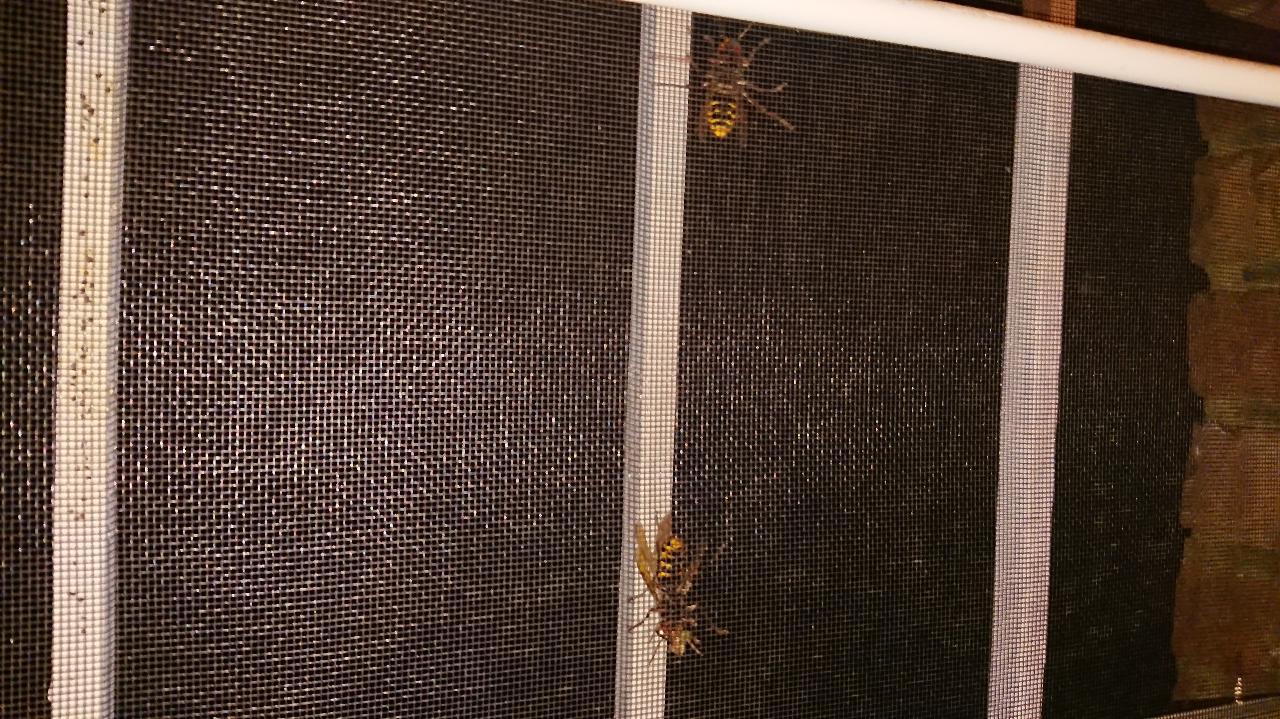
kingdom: Animalia
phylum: Arthropoda
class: Insecta
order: Hymenoptera
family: Vespidae
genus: Vespa
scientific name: Vespa crabro
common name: Hornet
